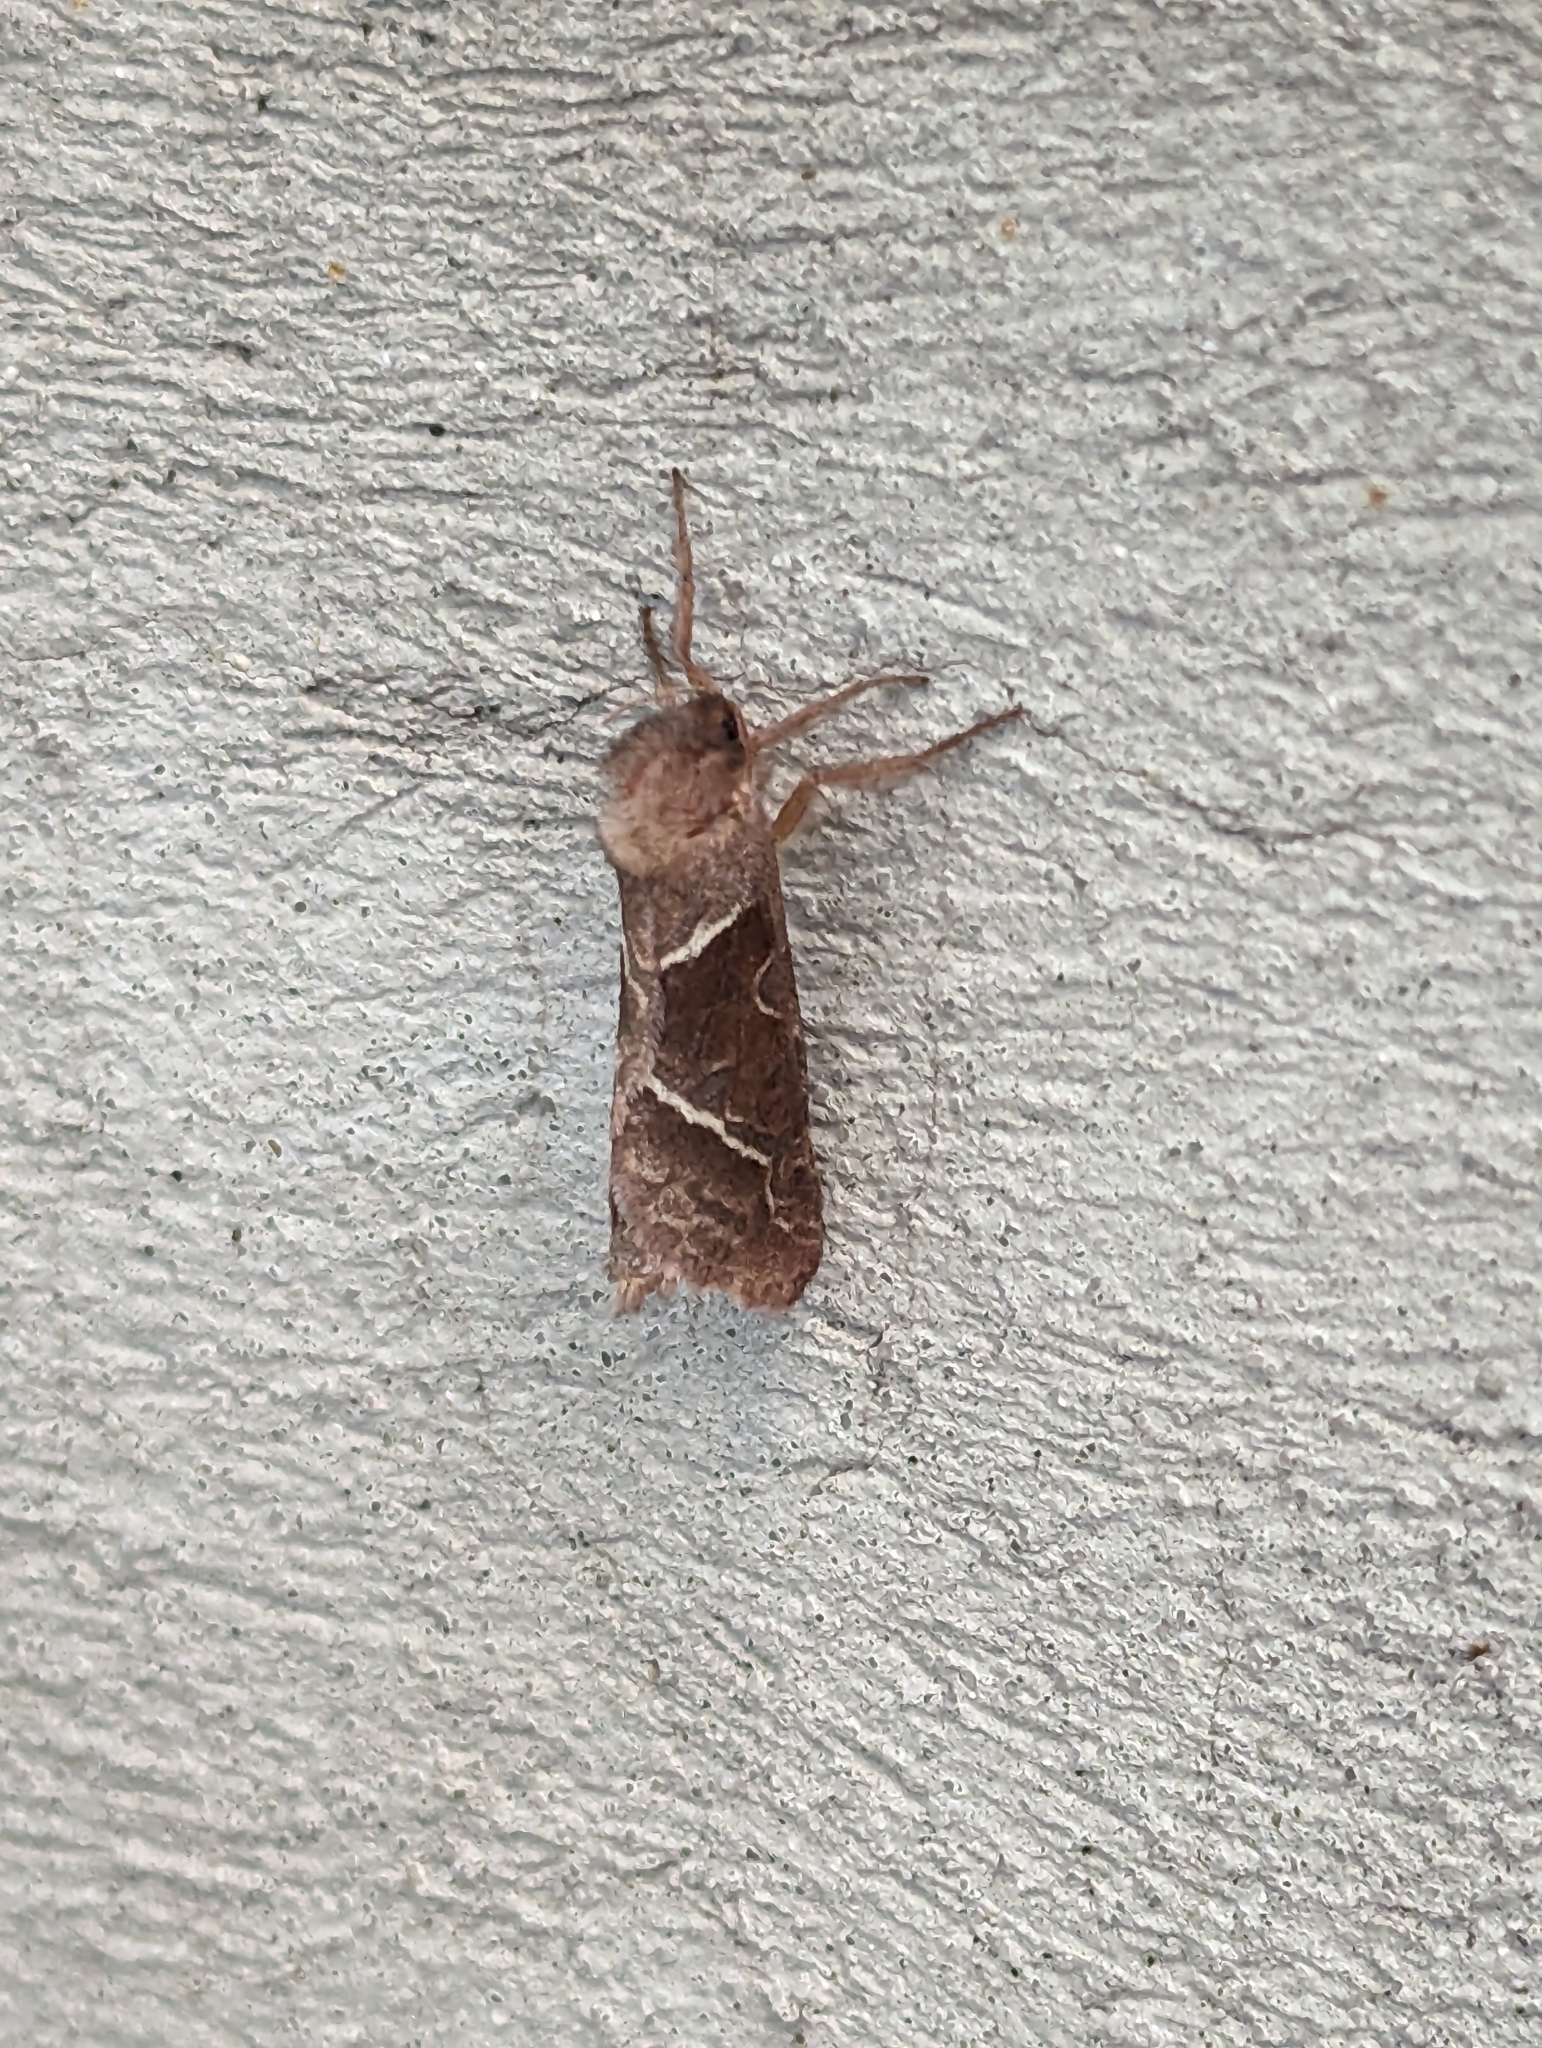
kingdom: Animalia
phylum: Arthropoda
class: Insecta
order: Lepidoptera
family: Hepialidae
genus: Triodia
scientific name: Triodia sylvina
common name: Orange swift
